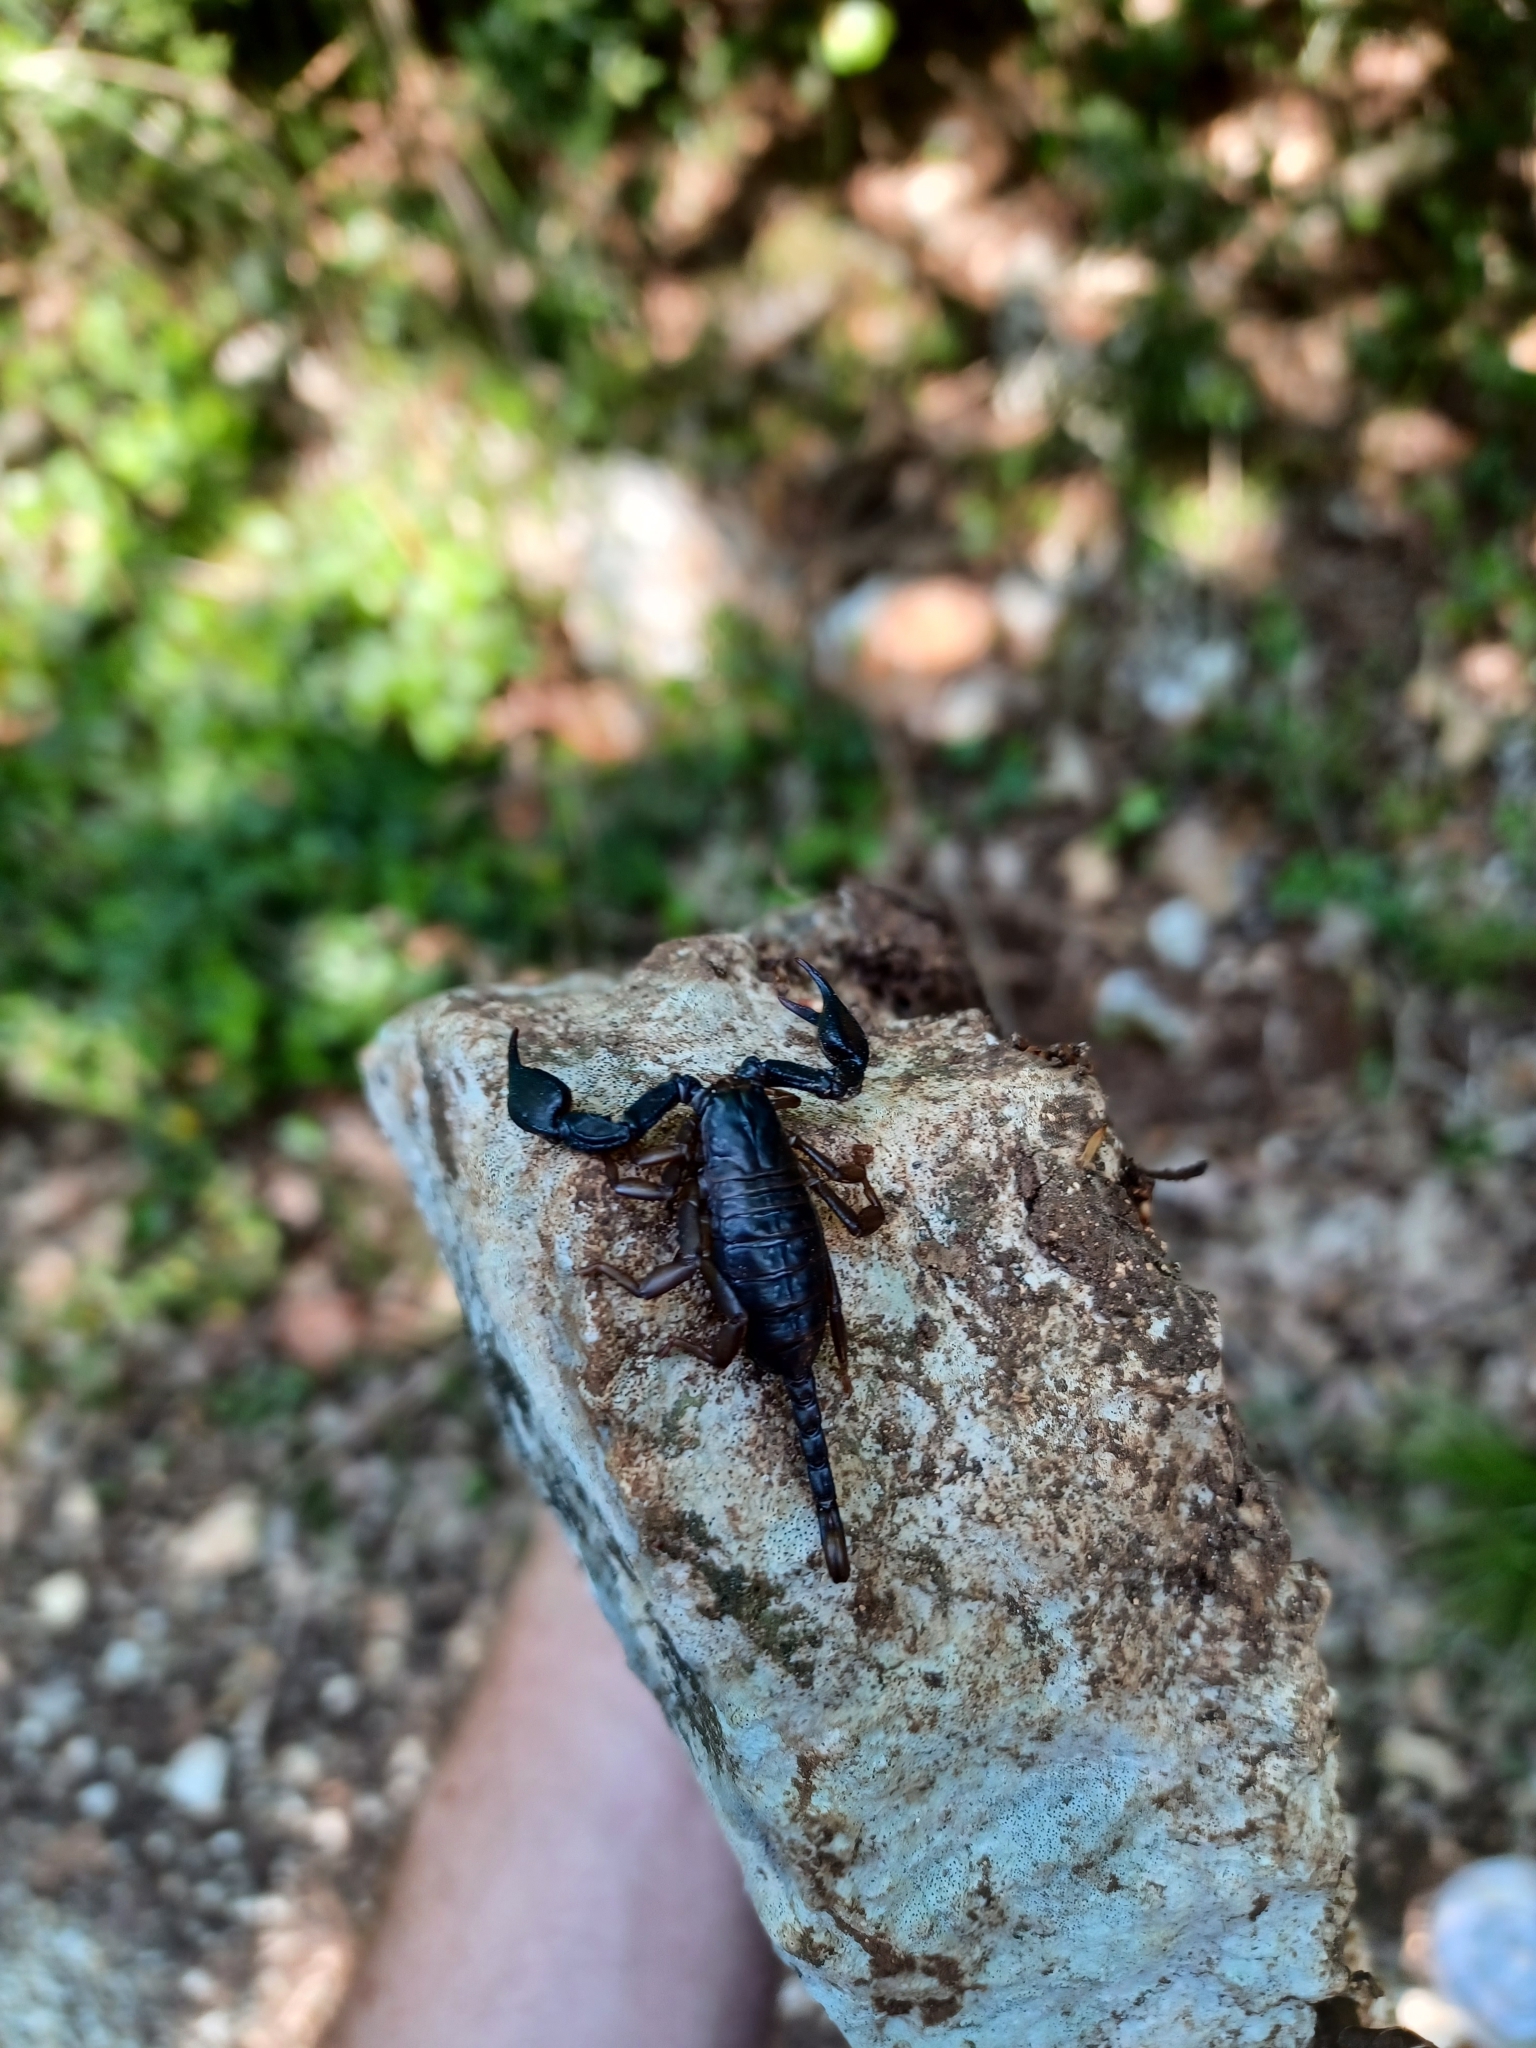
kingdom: Animalia
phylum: Arthropoda
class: Arachnida
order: Scorpiones
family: Euscorpiidae
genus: Euscorpius
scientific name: Euscorpius italicus
